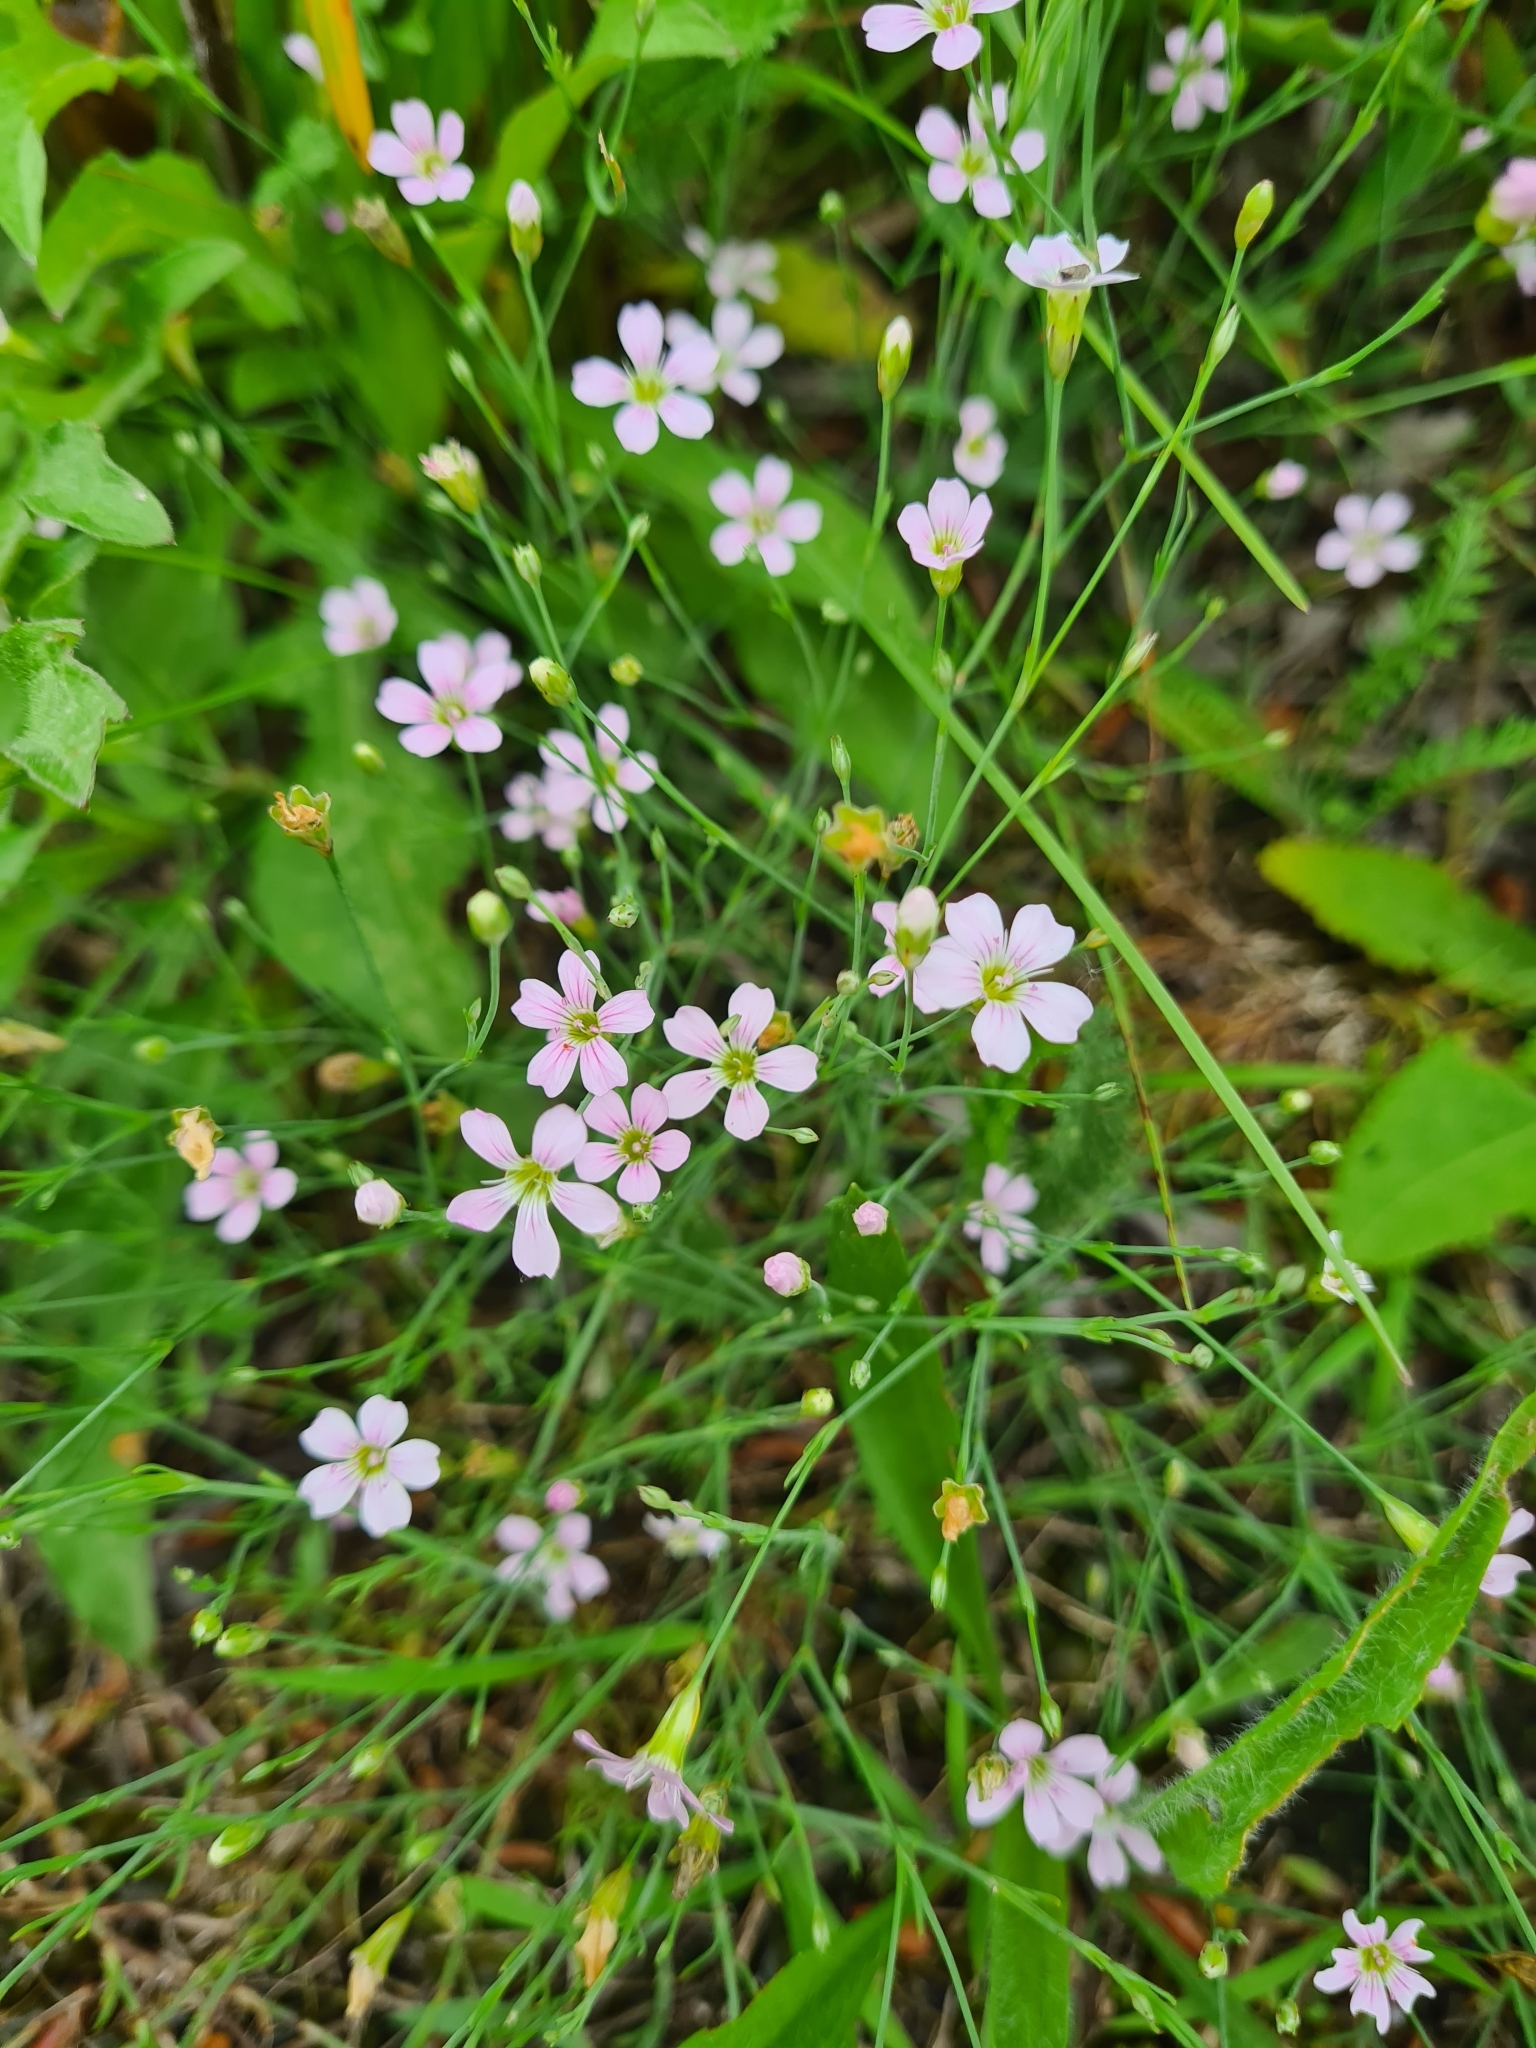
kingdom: Plantae
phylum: Tracheophyta
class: Magnoliopsida
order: Caryophyllales
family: Caryophyllaceae
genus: Petrorhagia
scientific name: Petrorhagia saxifraga
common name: Tunicflower
